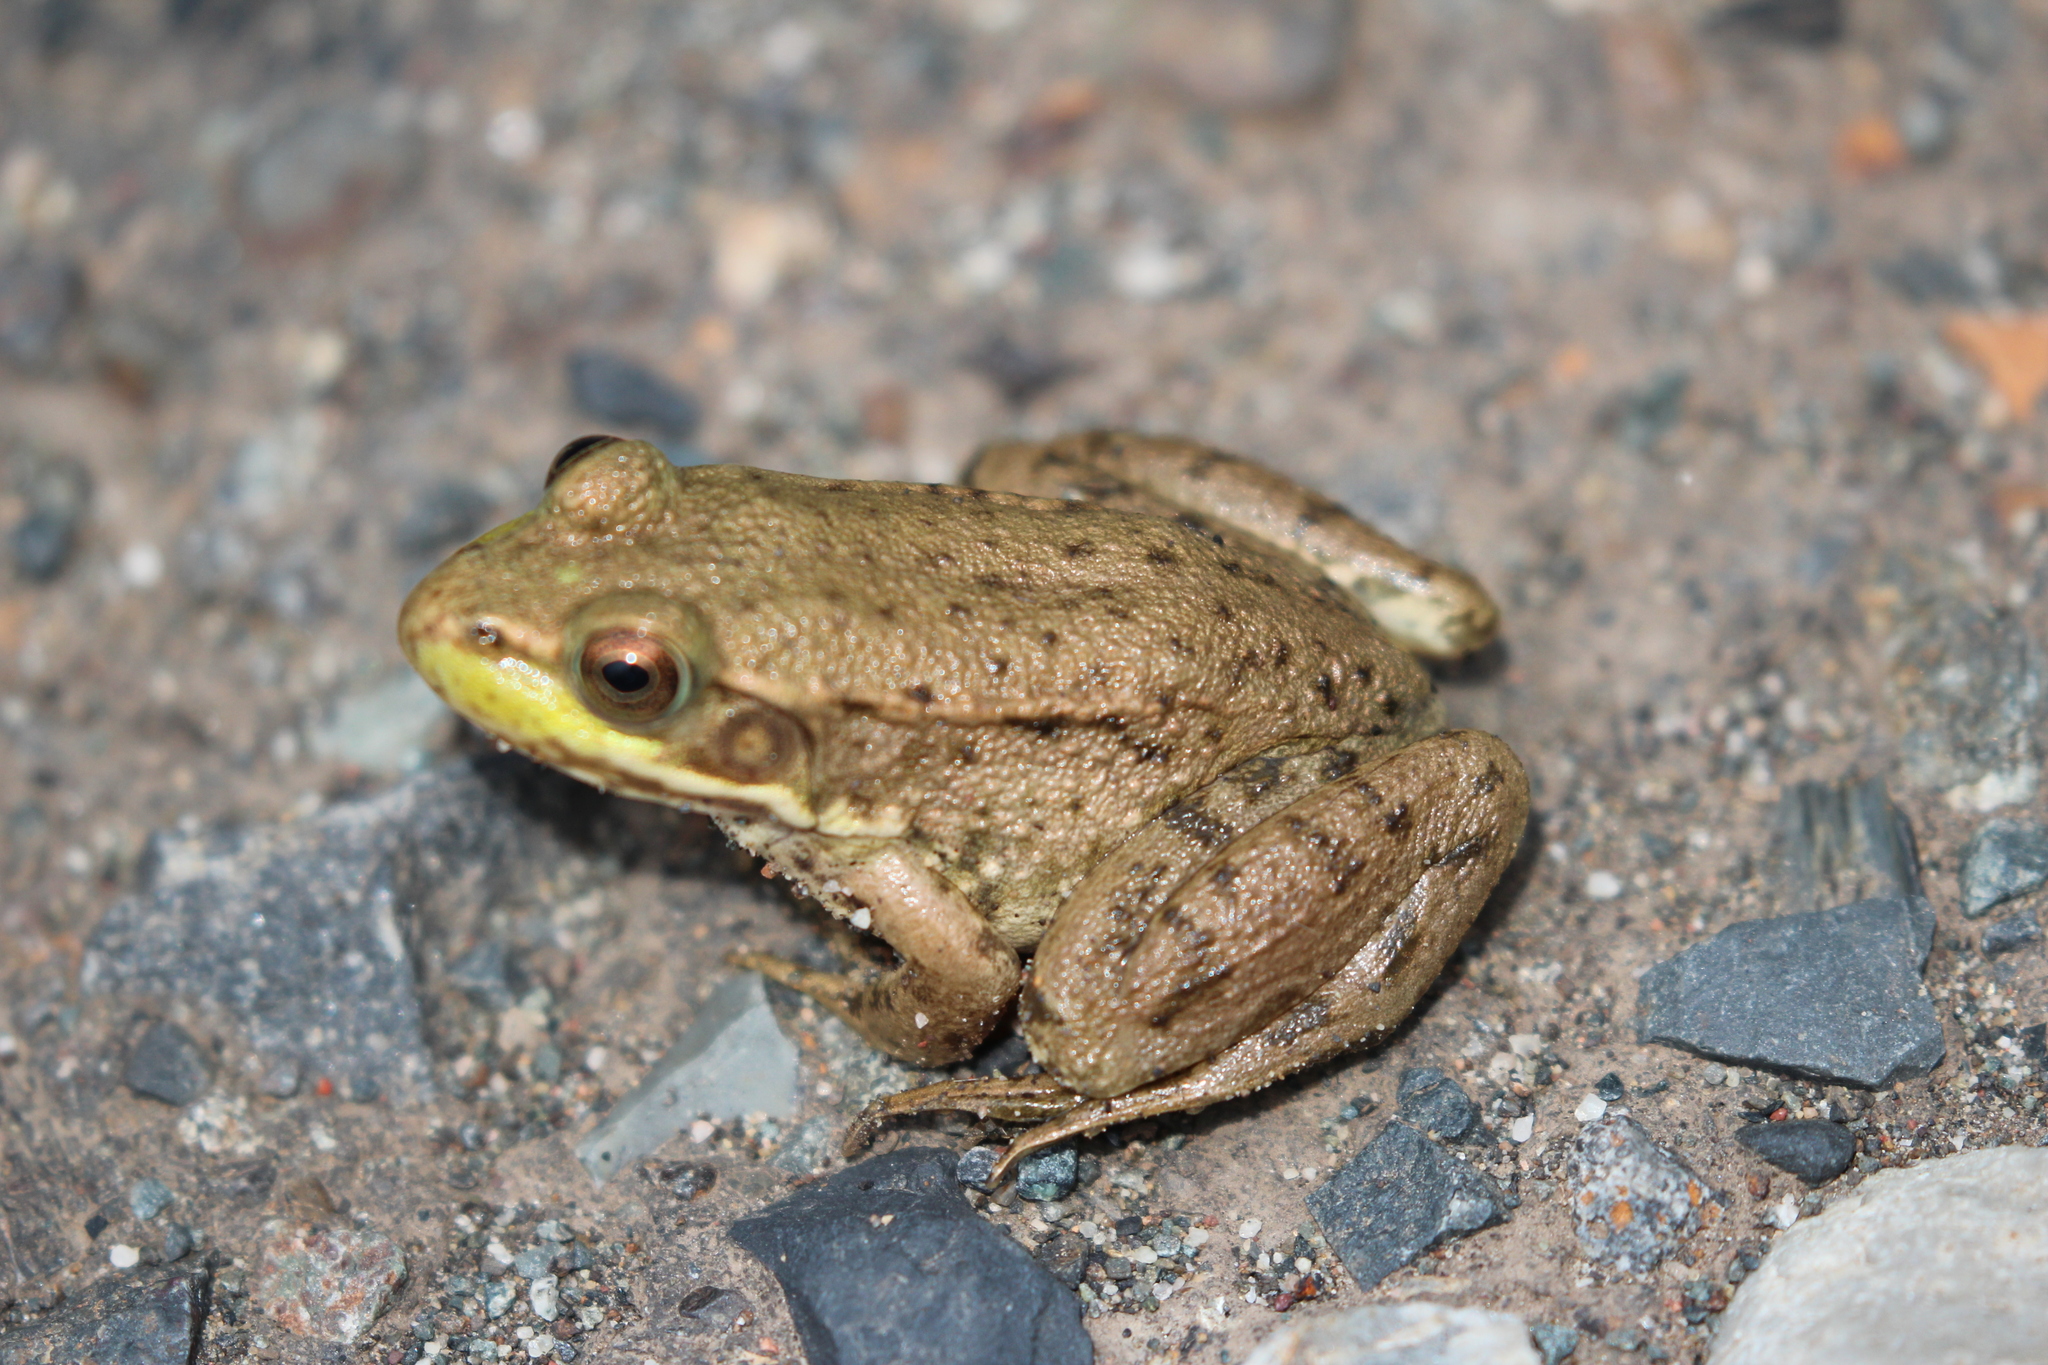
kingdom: Animalia
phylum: Chordata
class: Amphibia
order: Anura
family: Ranidae
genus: Lithobates
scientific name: Lithobates clamitans
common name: Green frog
